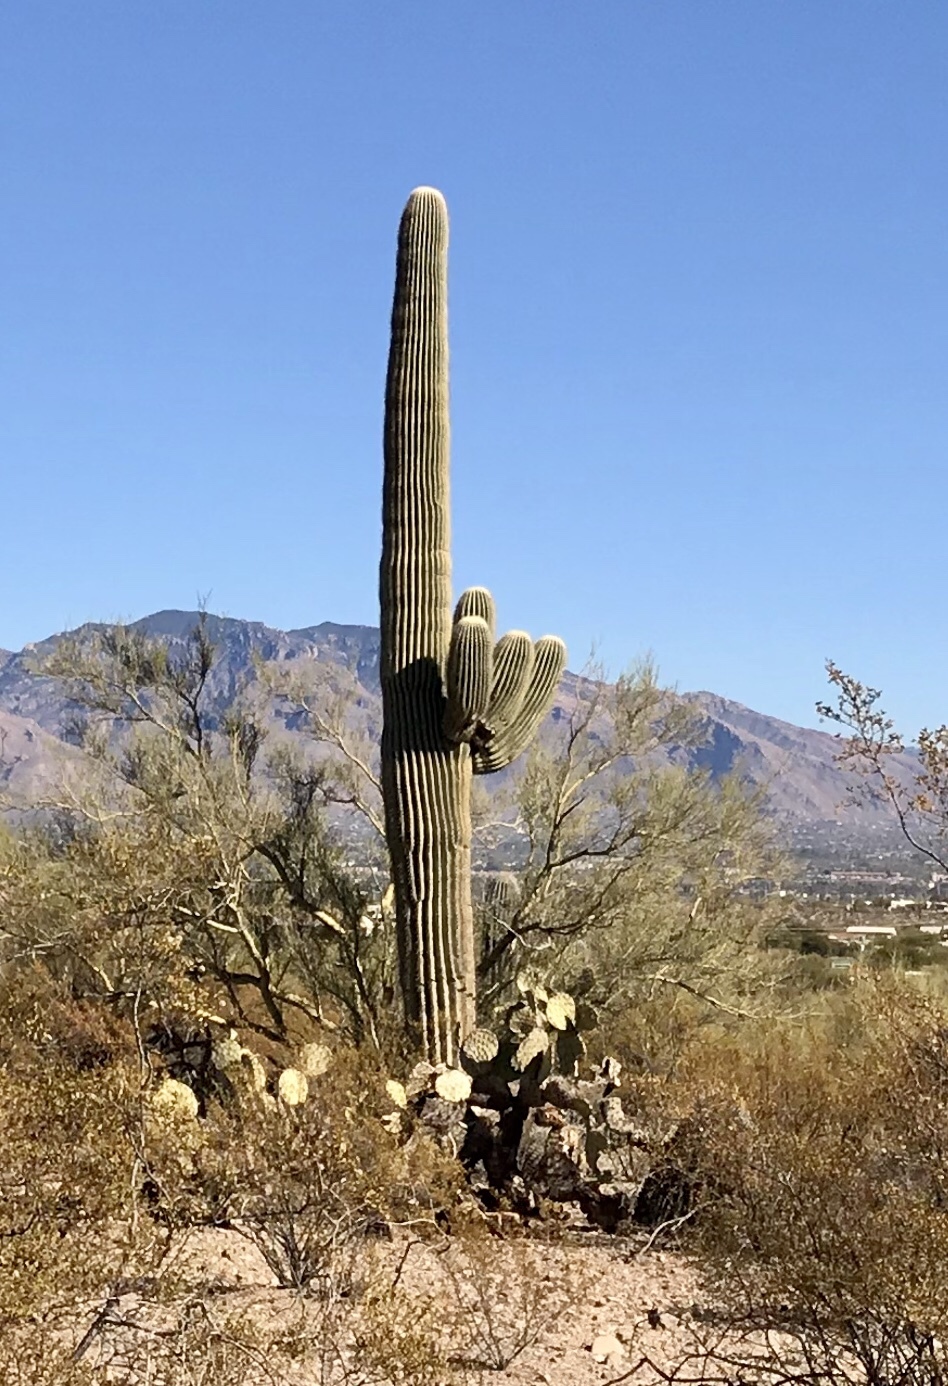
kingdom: Plantae
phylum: Tracheophyta
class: Magnoliopsida
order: Caryophyllales
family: Cactaceae
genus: Carnegiea
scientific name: Carnegiea gigantea
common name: Saguaro
